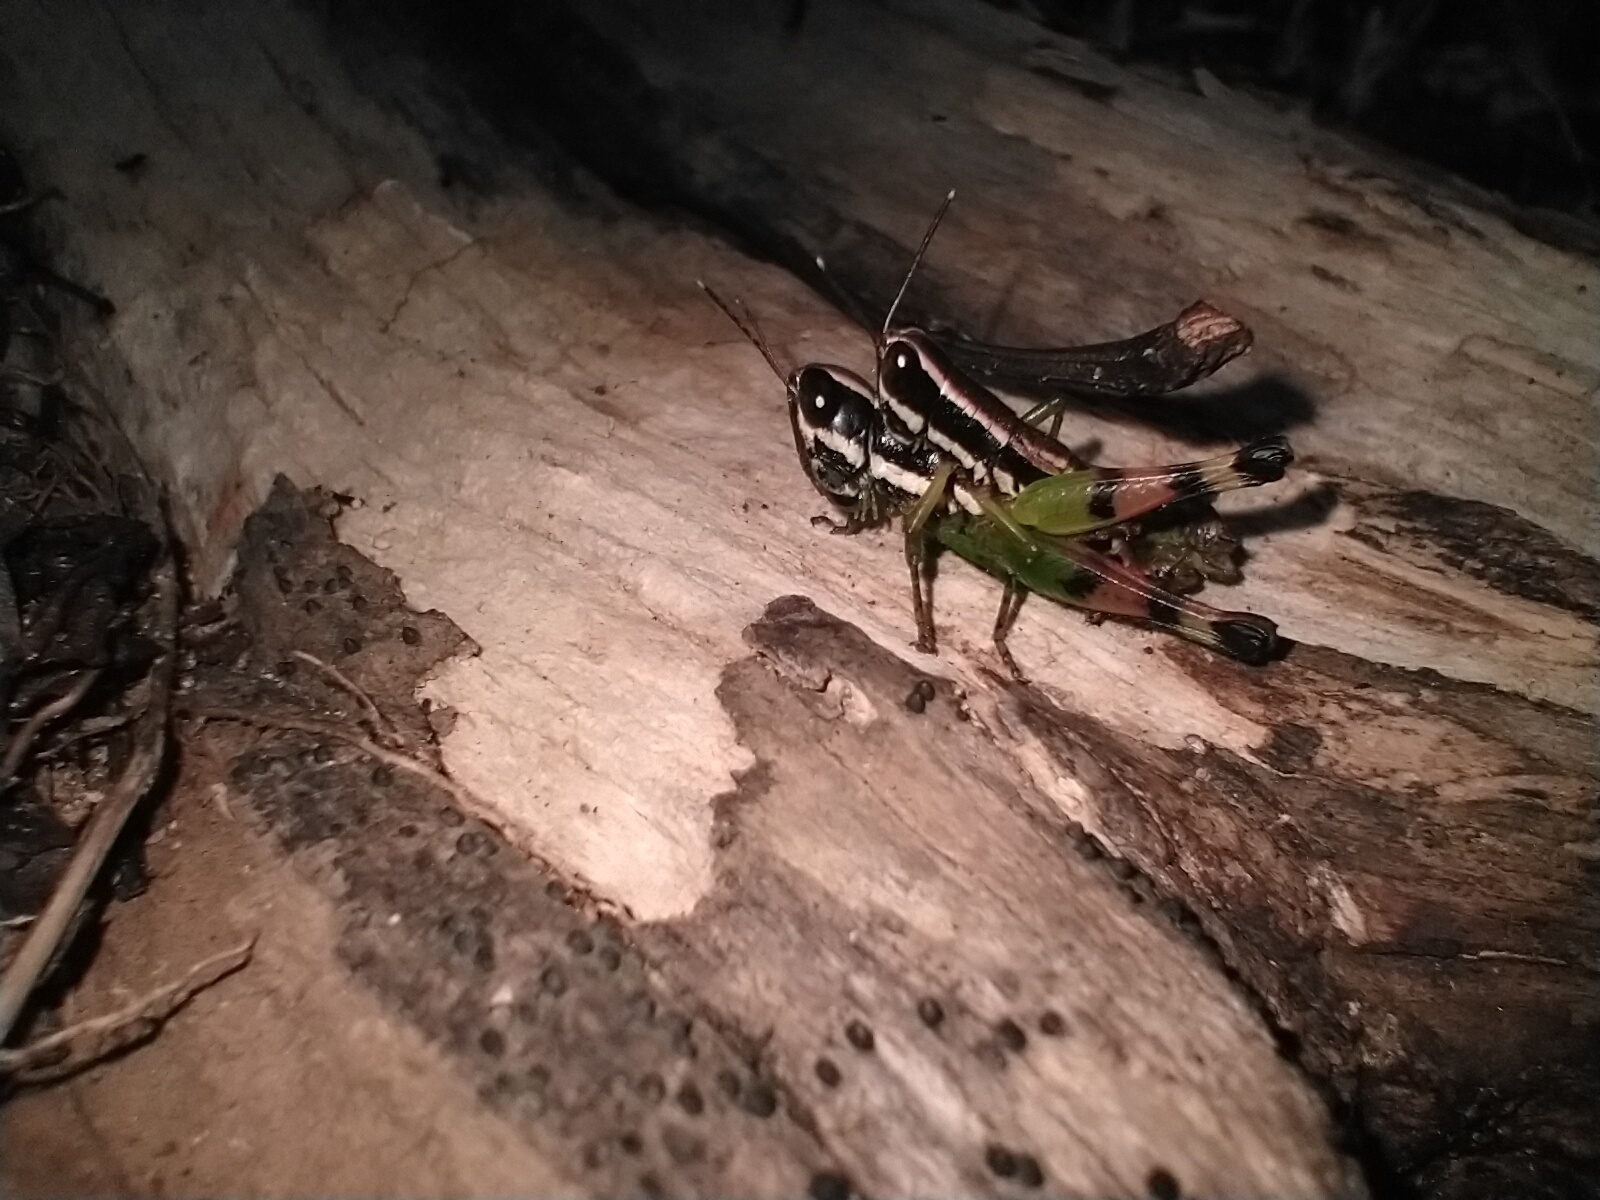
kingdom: Animalia
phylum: Arthropoda
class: Insecta
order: Orthoptera
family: Acrididae
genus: Chitaura
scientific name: Chitaura indica
